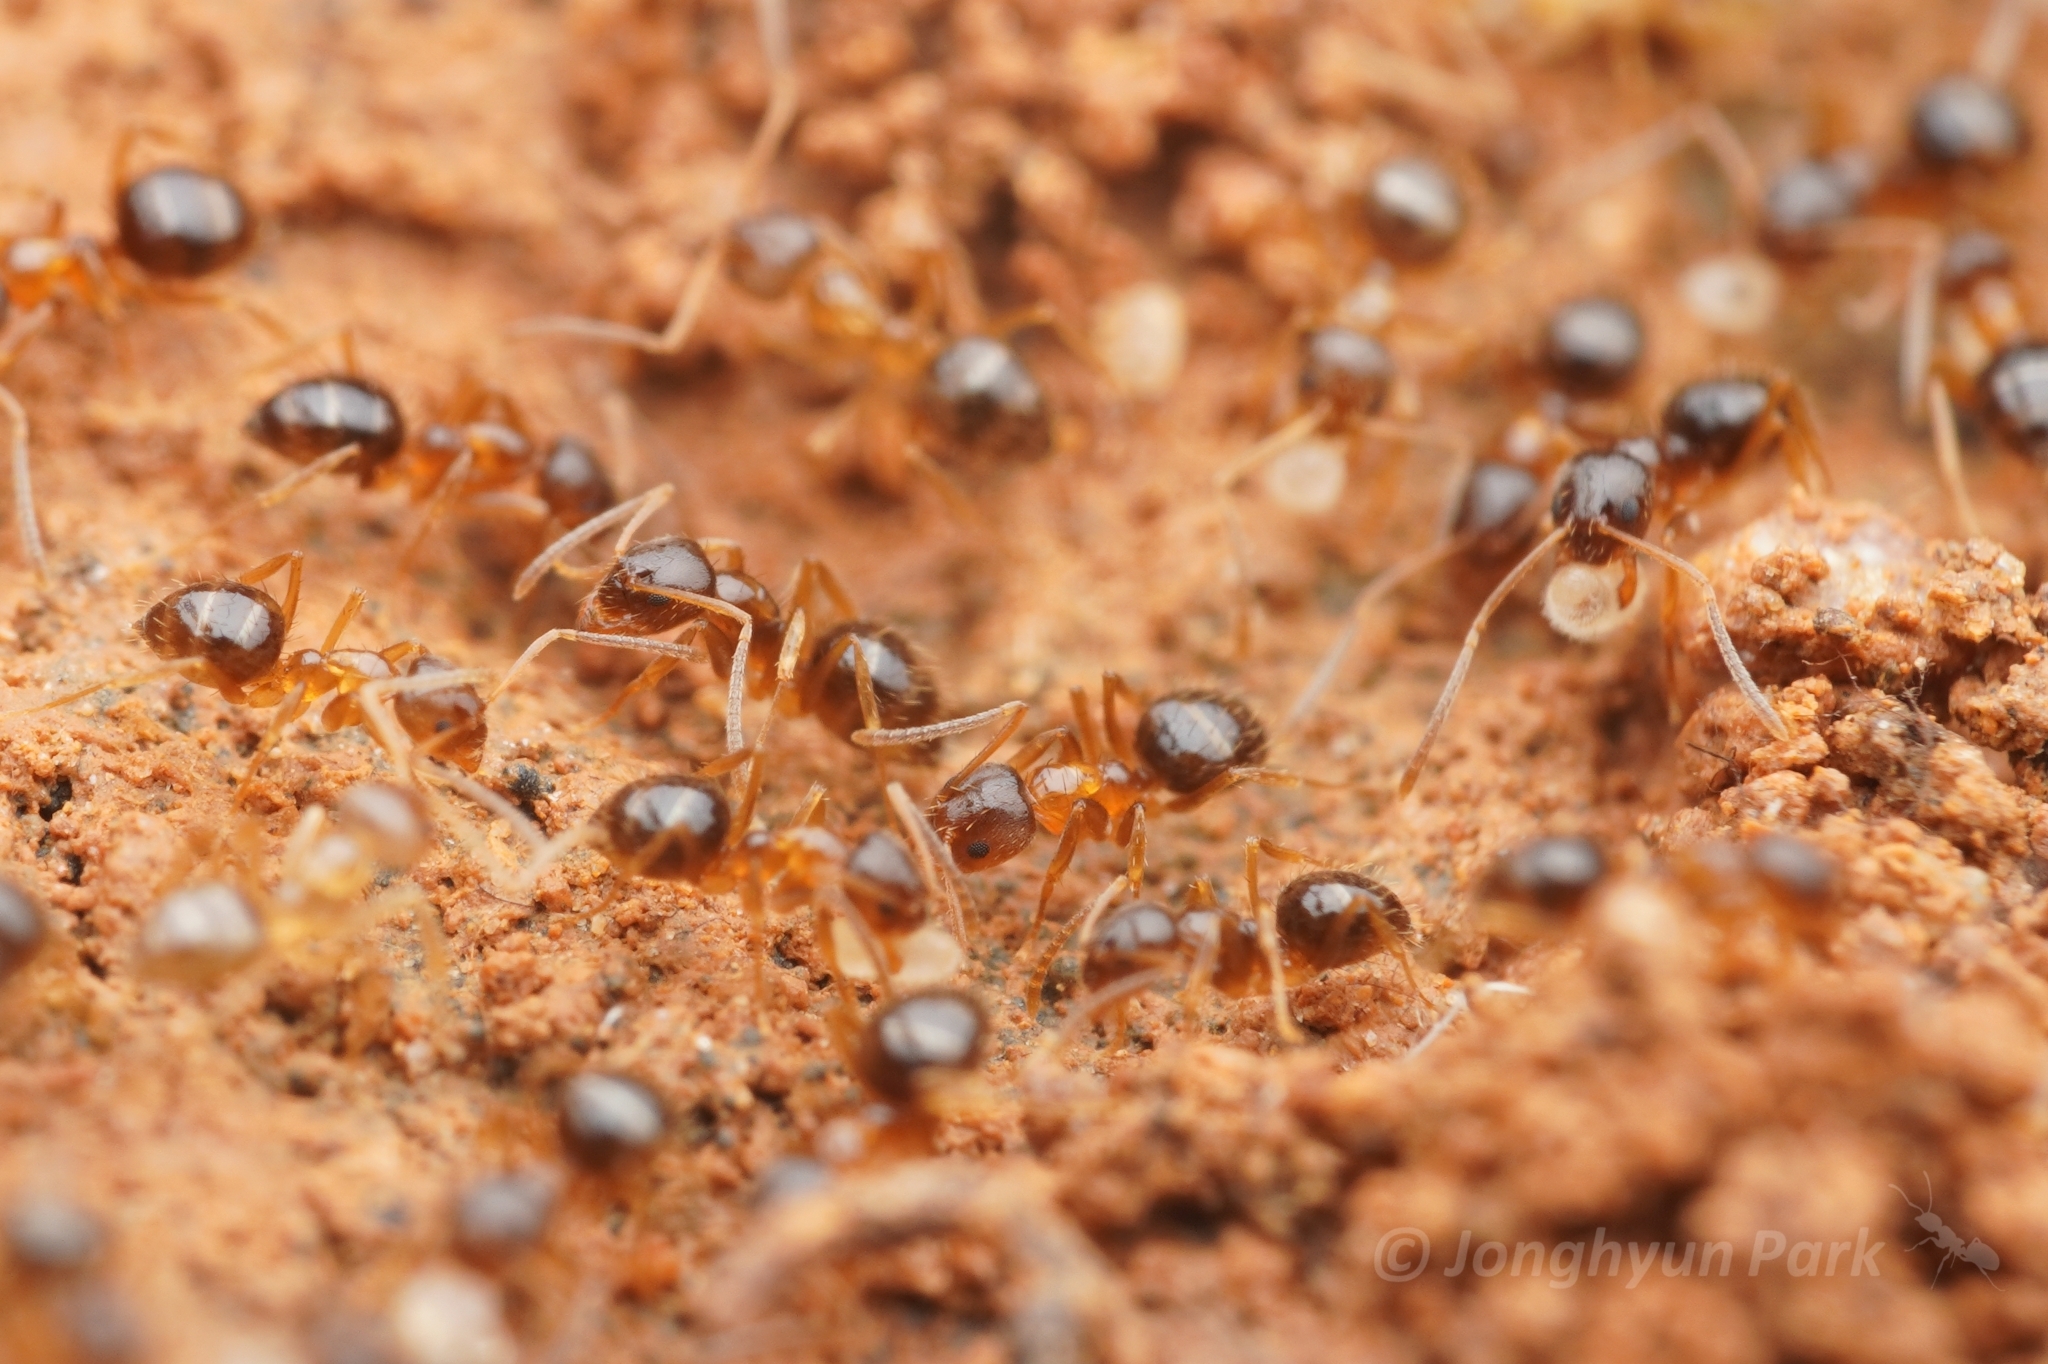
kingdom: Animalia
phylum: Arthropoda
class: Insecta
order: Hymenoptera
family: Formicidae
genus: Paratrechina
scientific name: Paratrechina flavipes
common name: Eastern asian formicine ant
